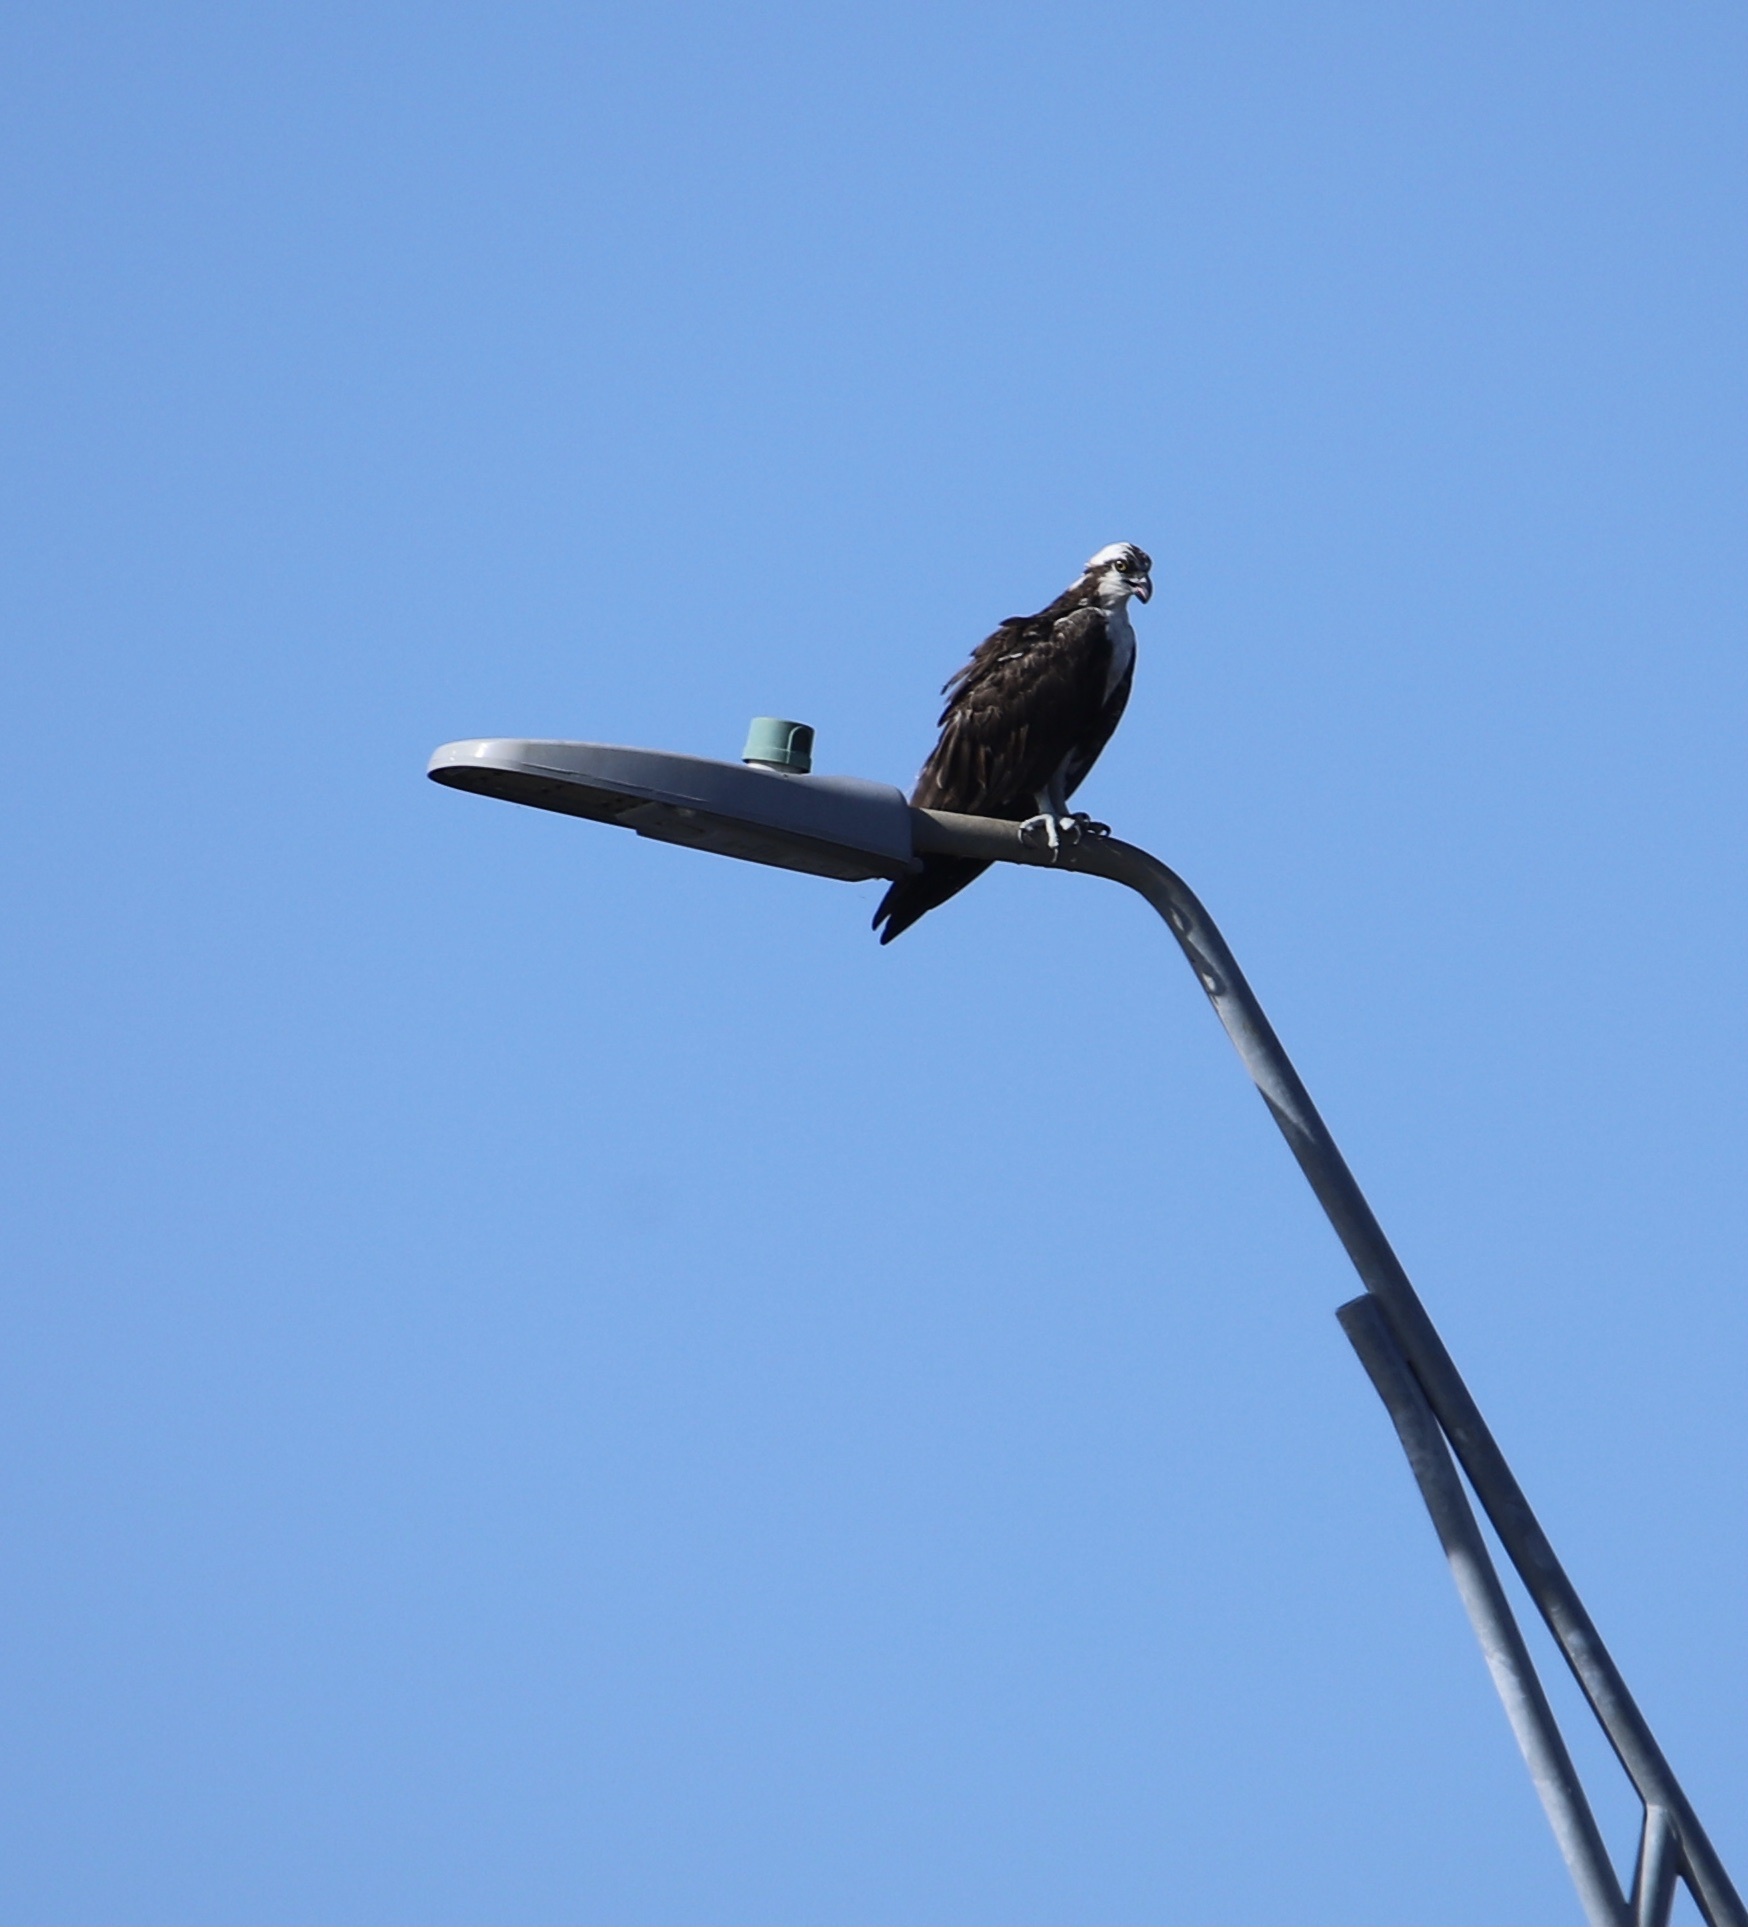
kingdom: Animalia
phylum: Chordata
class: Aves
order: Accipitriformes
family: Pandionidae
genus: Pandion
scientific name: Pandion haliaetus
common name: Osprey
